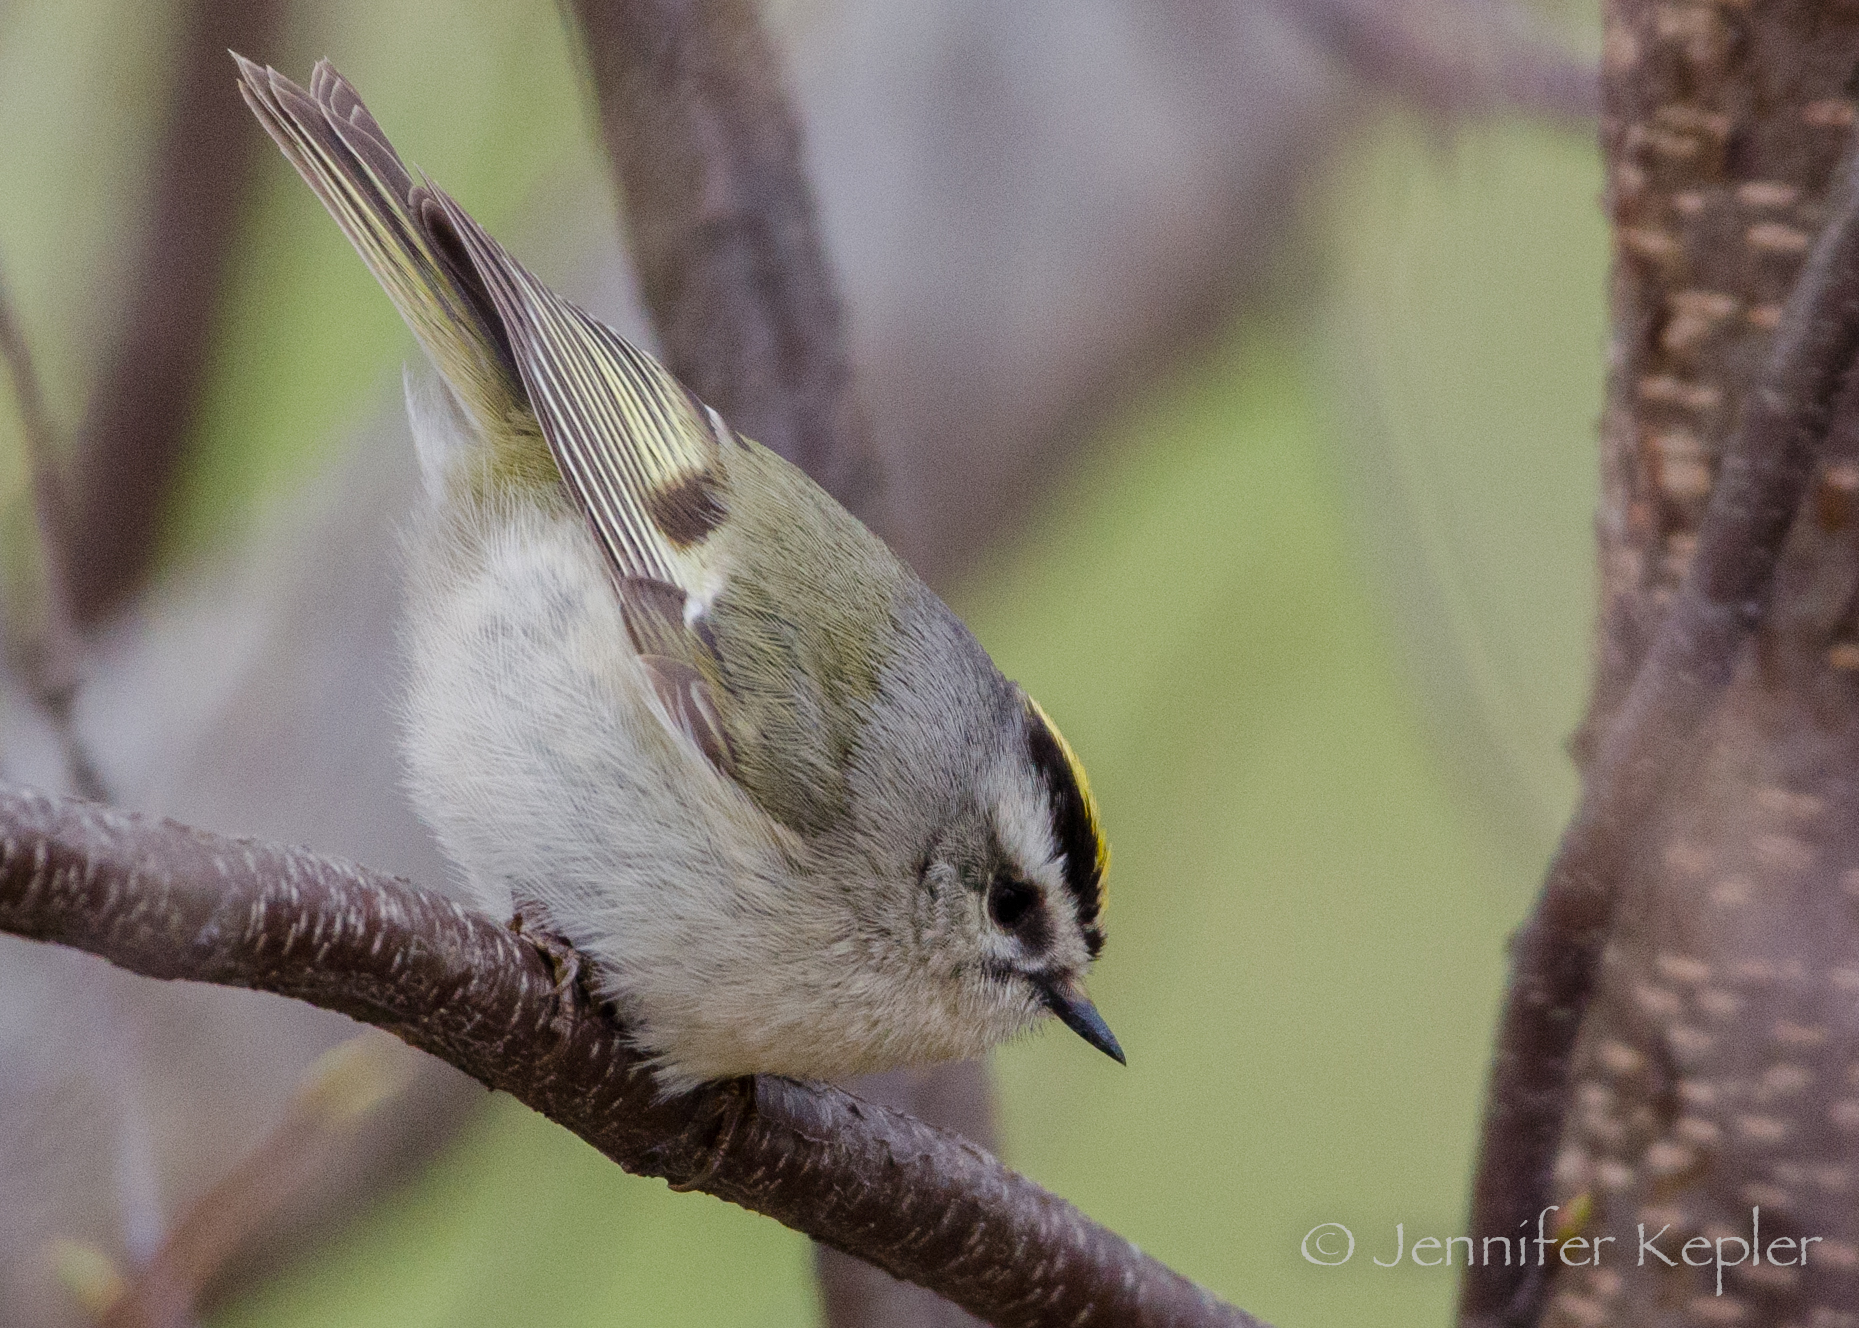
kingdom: Animalia
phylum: Chordata
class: Aves
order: Passeriformes
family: Regulidae
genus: Regulus
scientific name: Regulus satrapa
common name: Golden-crowned kinglet
